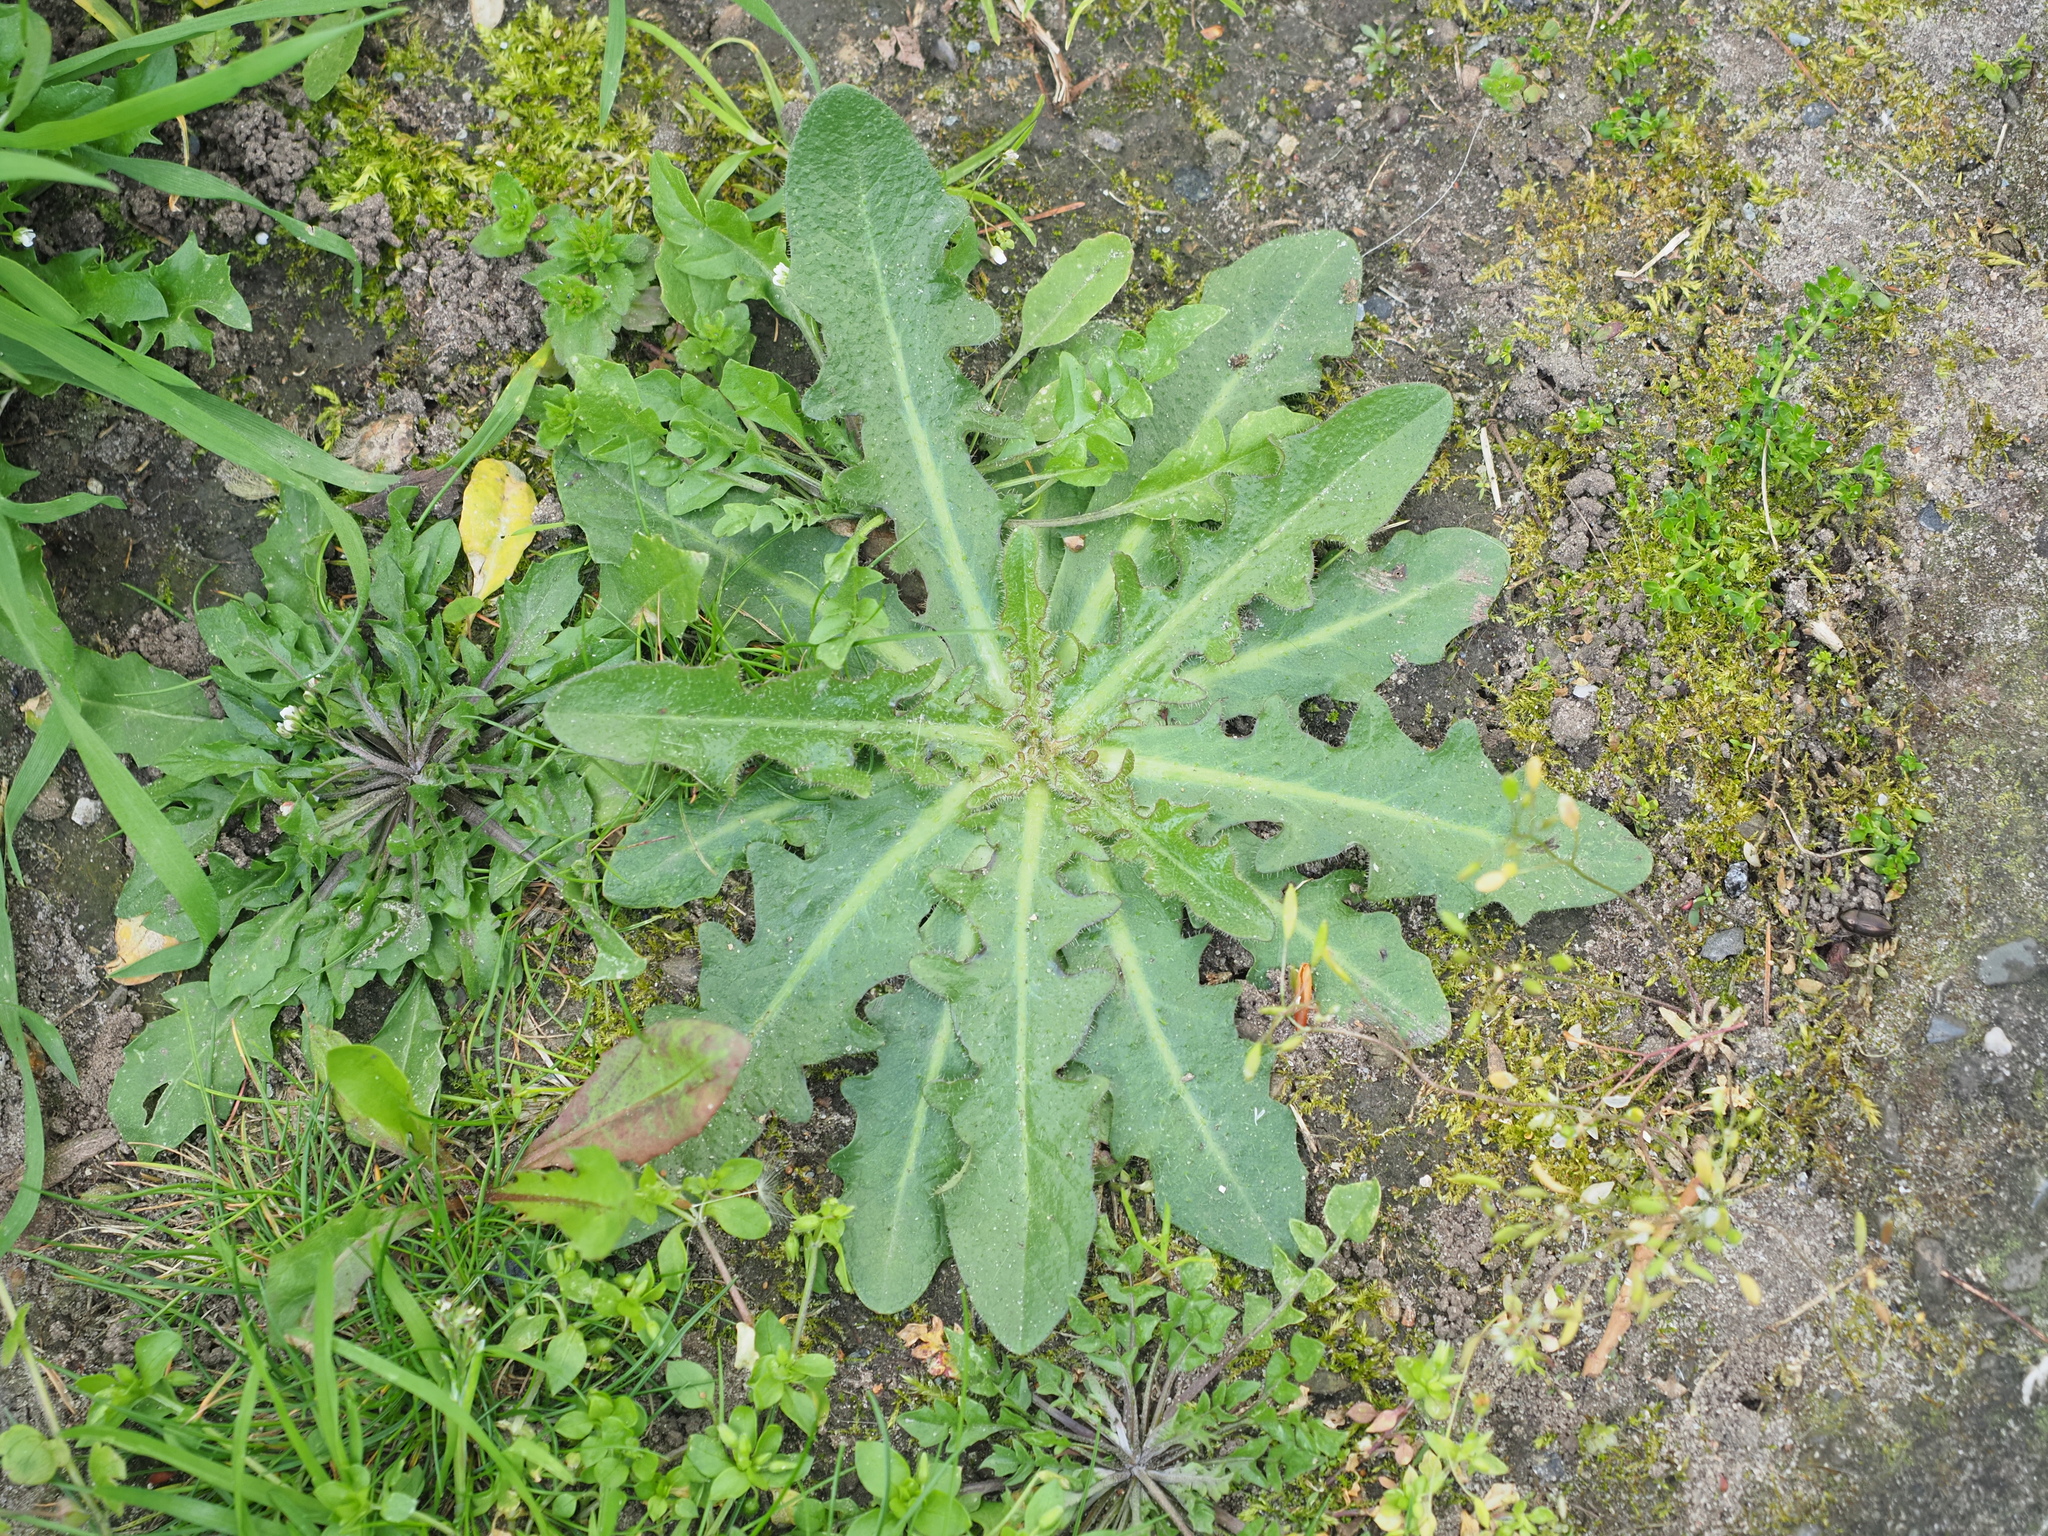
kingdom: Plantae
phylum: Tracheophyta
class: Magnoliopsida
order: Asterales
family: Asteraceae
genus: Hypochaeris
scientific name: Hypochaeris radicata
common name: Flatweed
